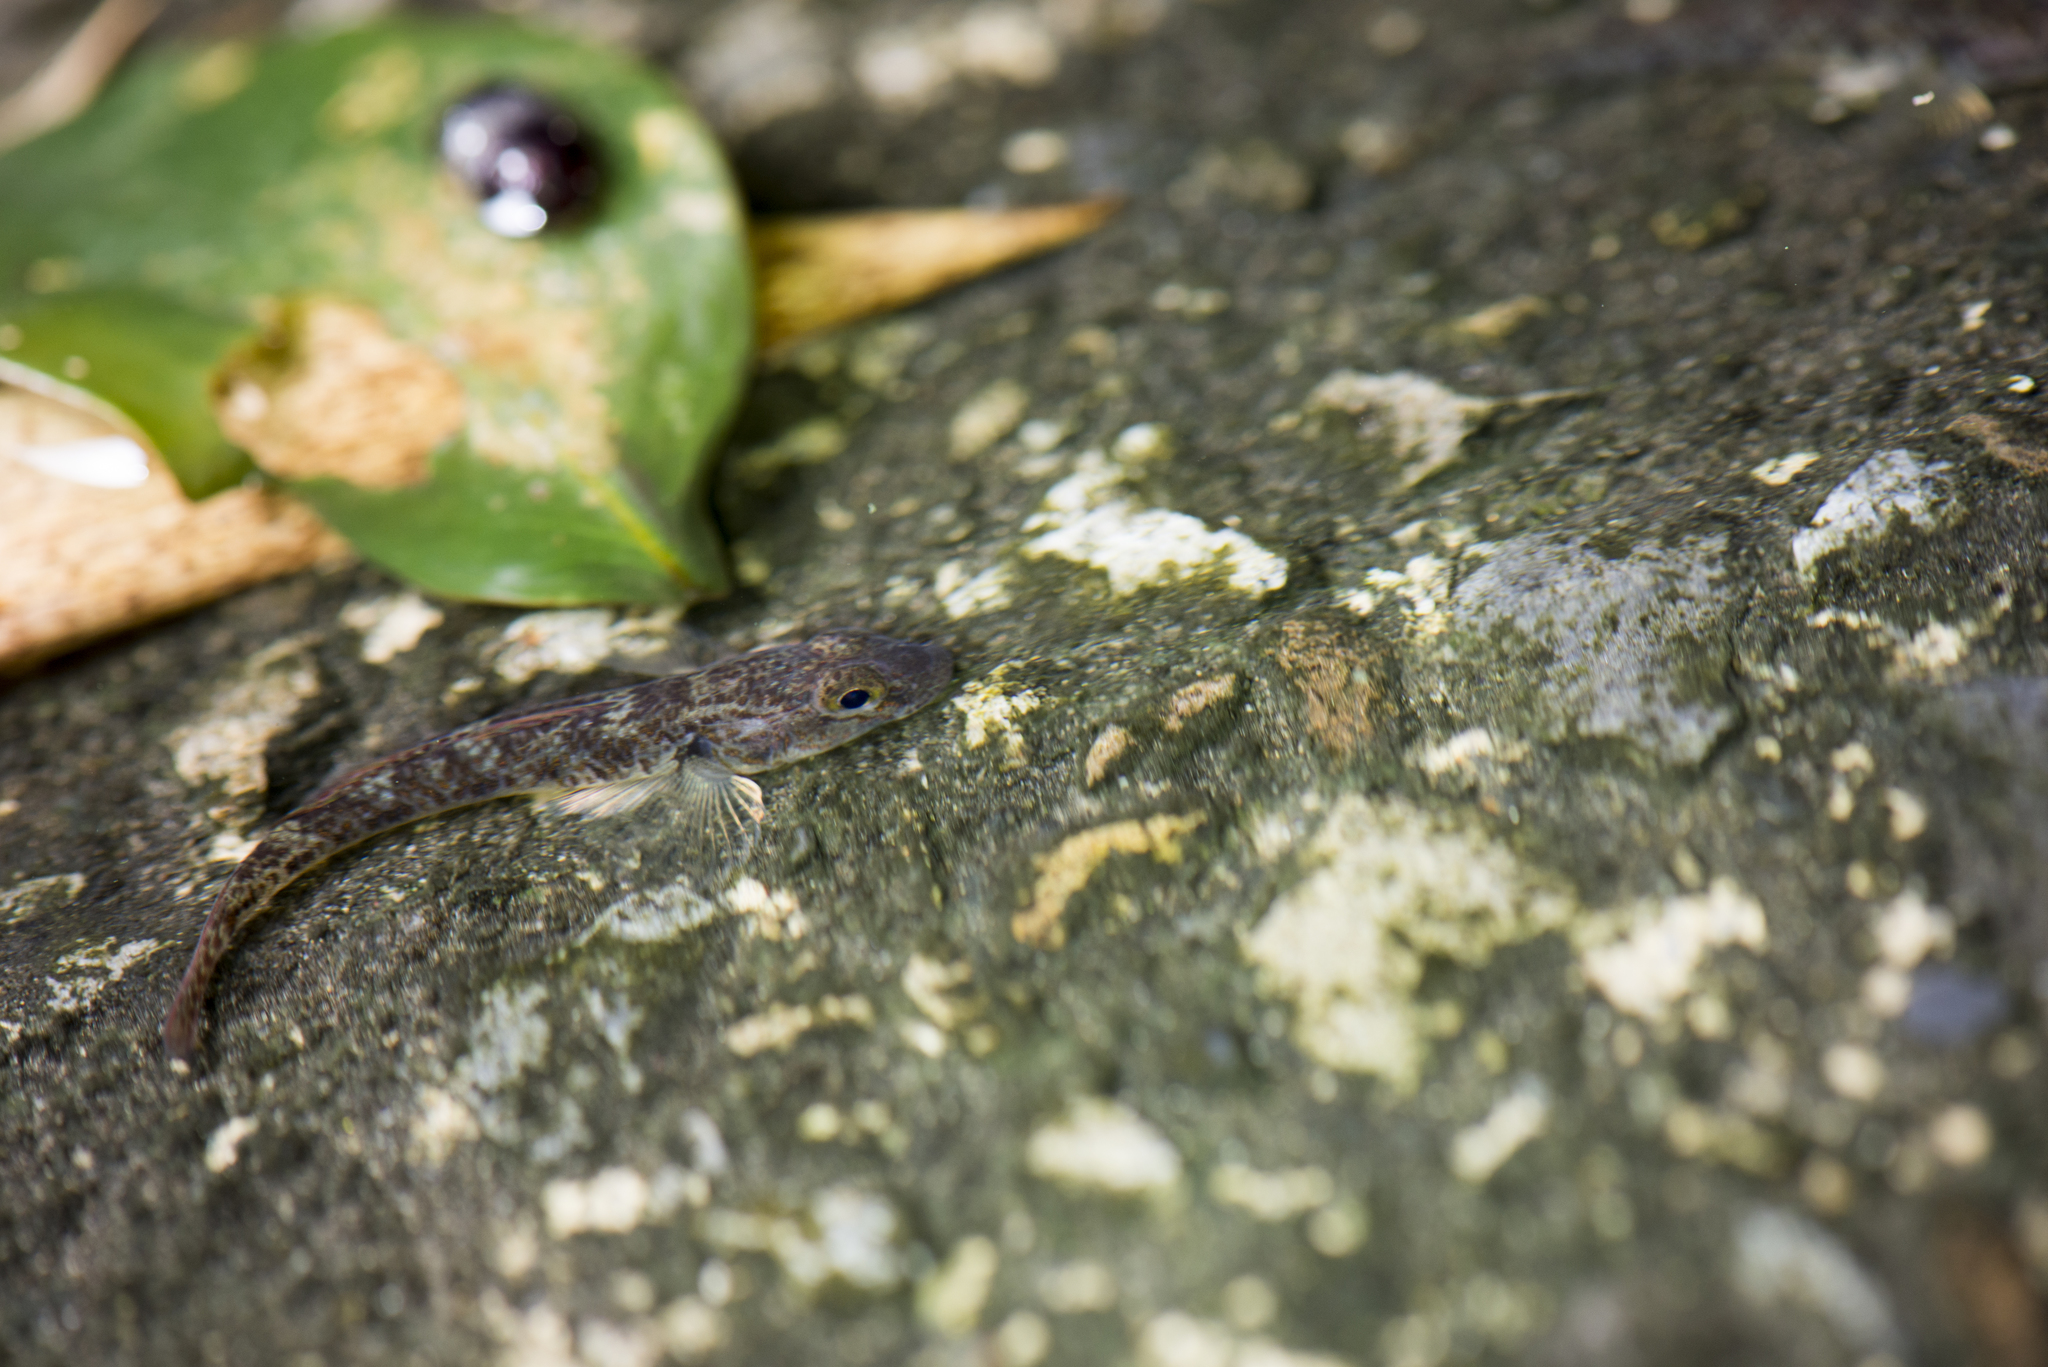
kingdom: Animalia
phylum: Chordata
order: Perciformes
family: Gobiidae
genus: Rhinogobius
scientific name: Rhinogobius similis
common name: Amur goby
